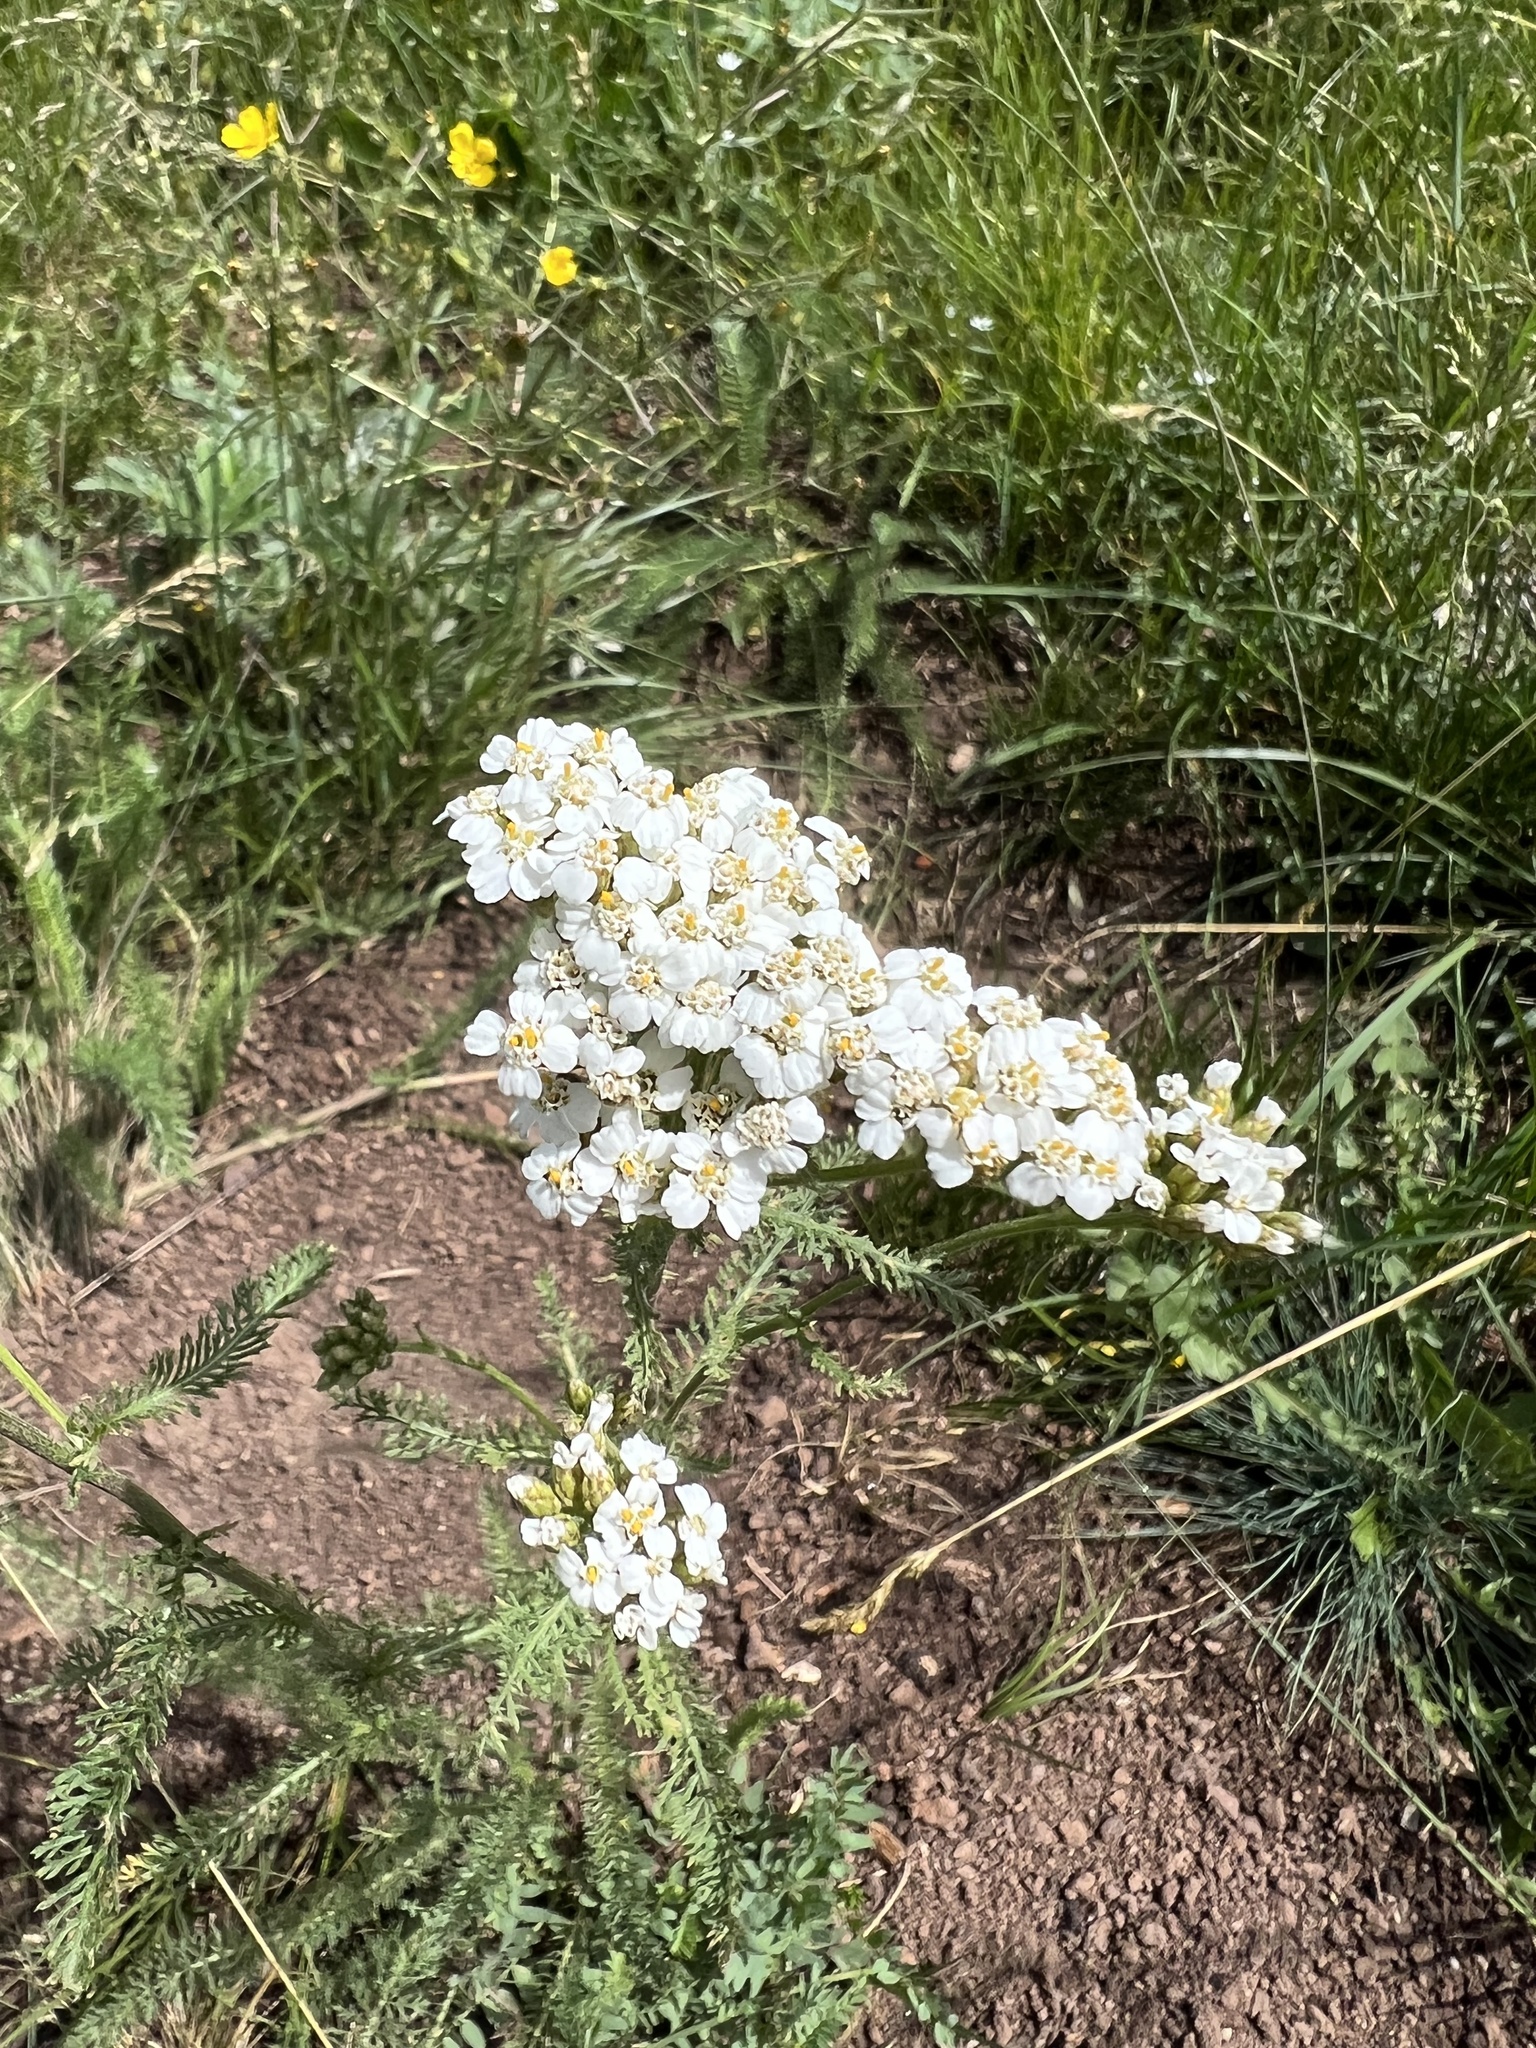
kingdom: Plantae
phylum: Tracheophyta
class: Magnoliopsida
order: Asterales
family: Asteraceae
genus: Achillea
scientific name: Achillea millefolium
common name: Yarrow
